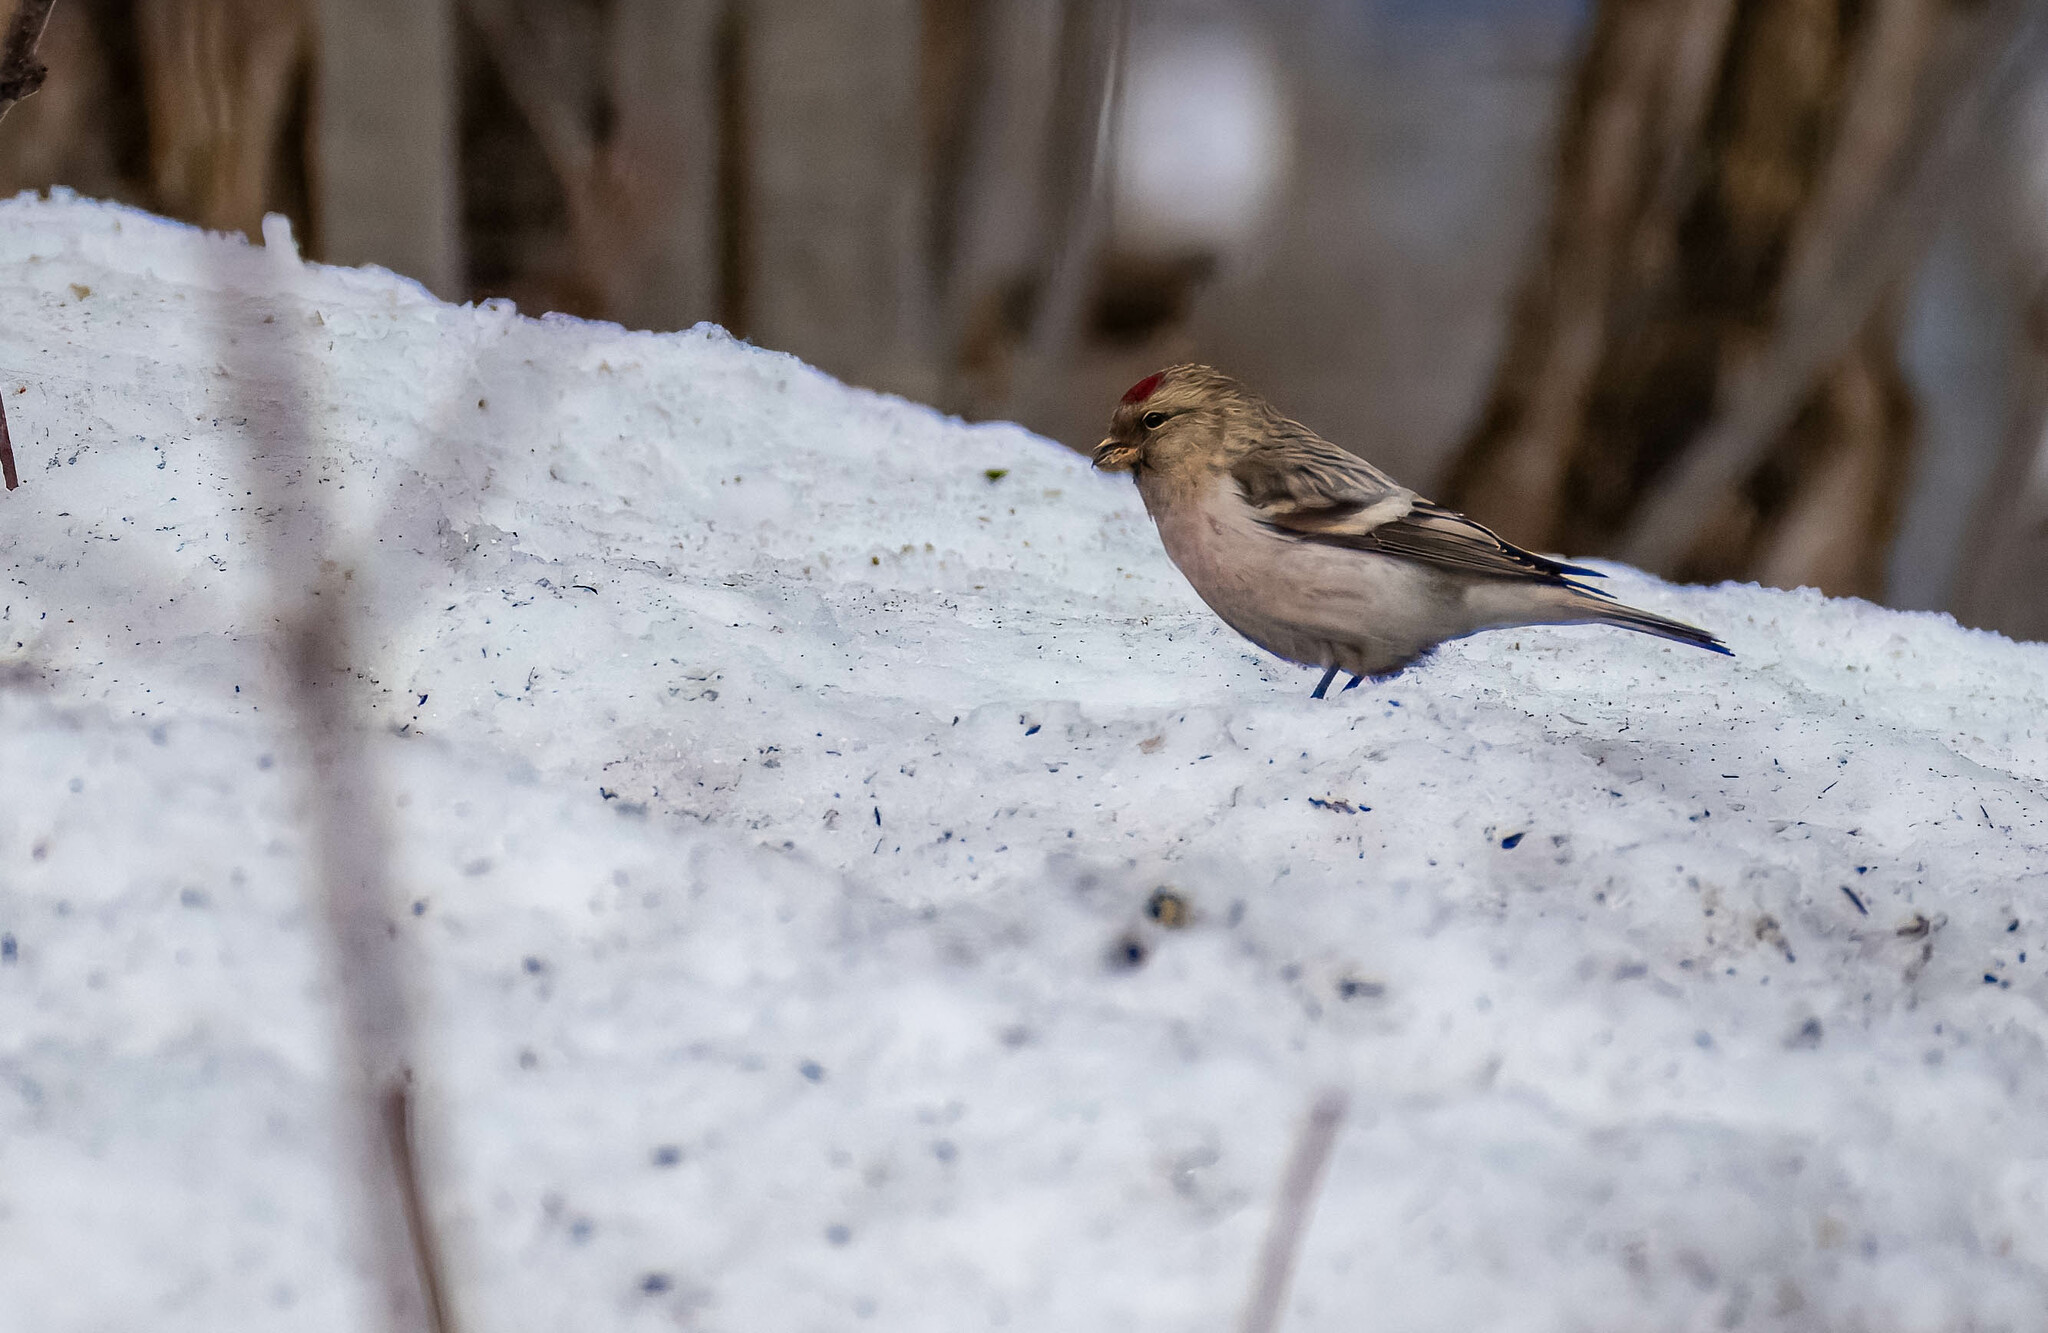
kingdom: Animalia
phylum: Chordata
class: Aves
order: Passeriformes
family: Fringillidae
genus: Acanthis
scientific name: Acanthis hornemanni
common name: Arctic redpoll
